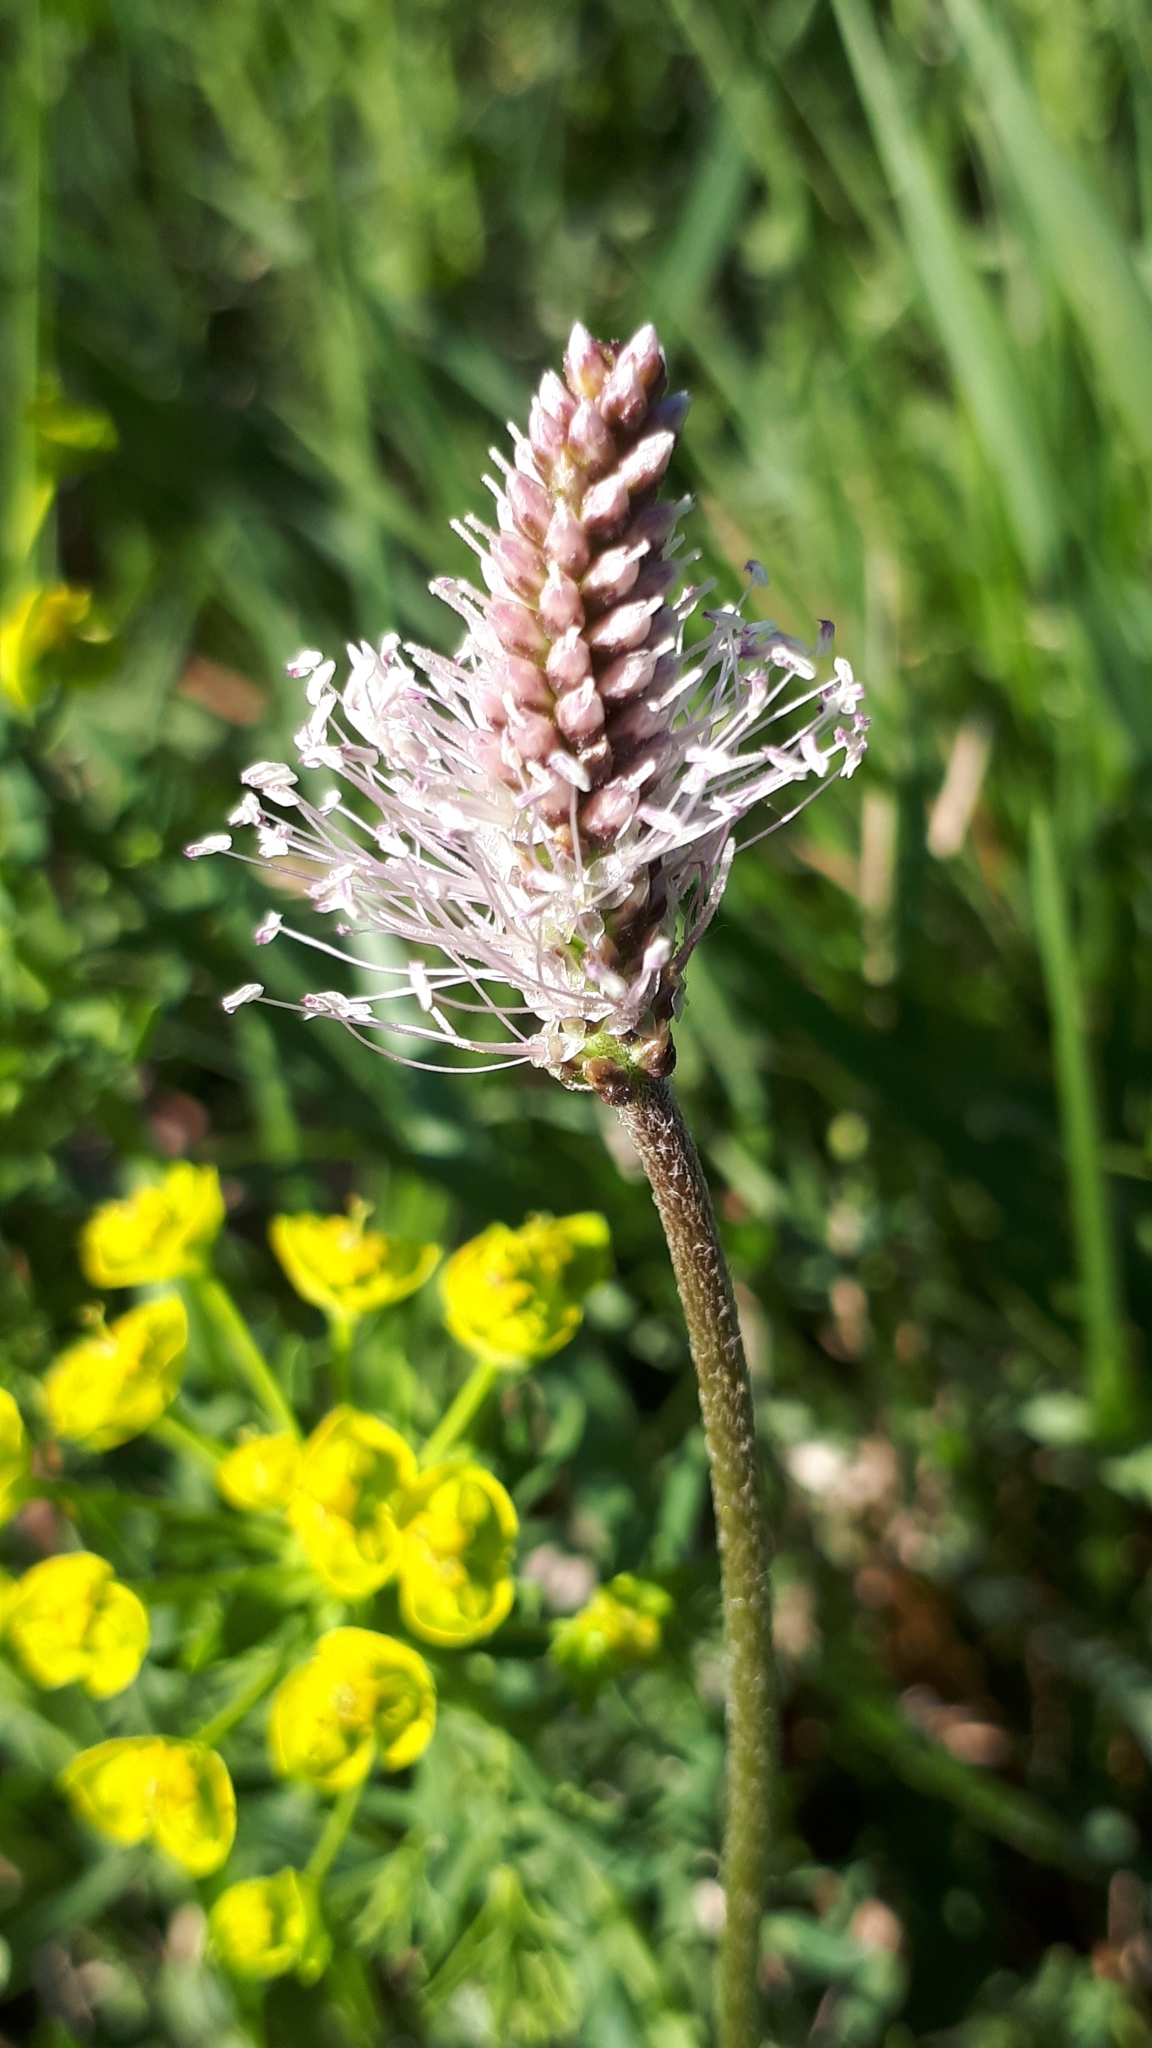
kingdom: Plantae
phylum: Tracheophyta
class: Magnoliopsida
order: Lamiales
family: Plantaginaceae
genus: Plantago
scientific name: Plantago media
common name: Hoary plantain
